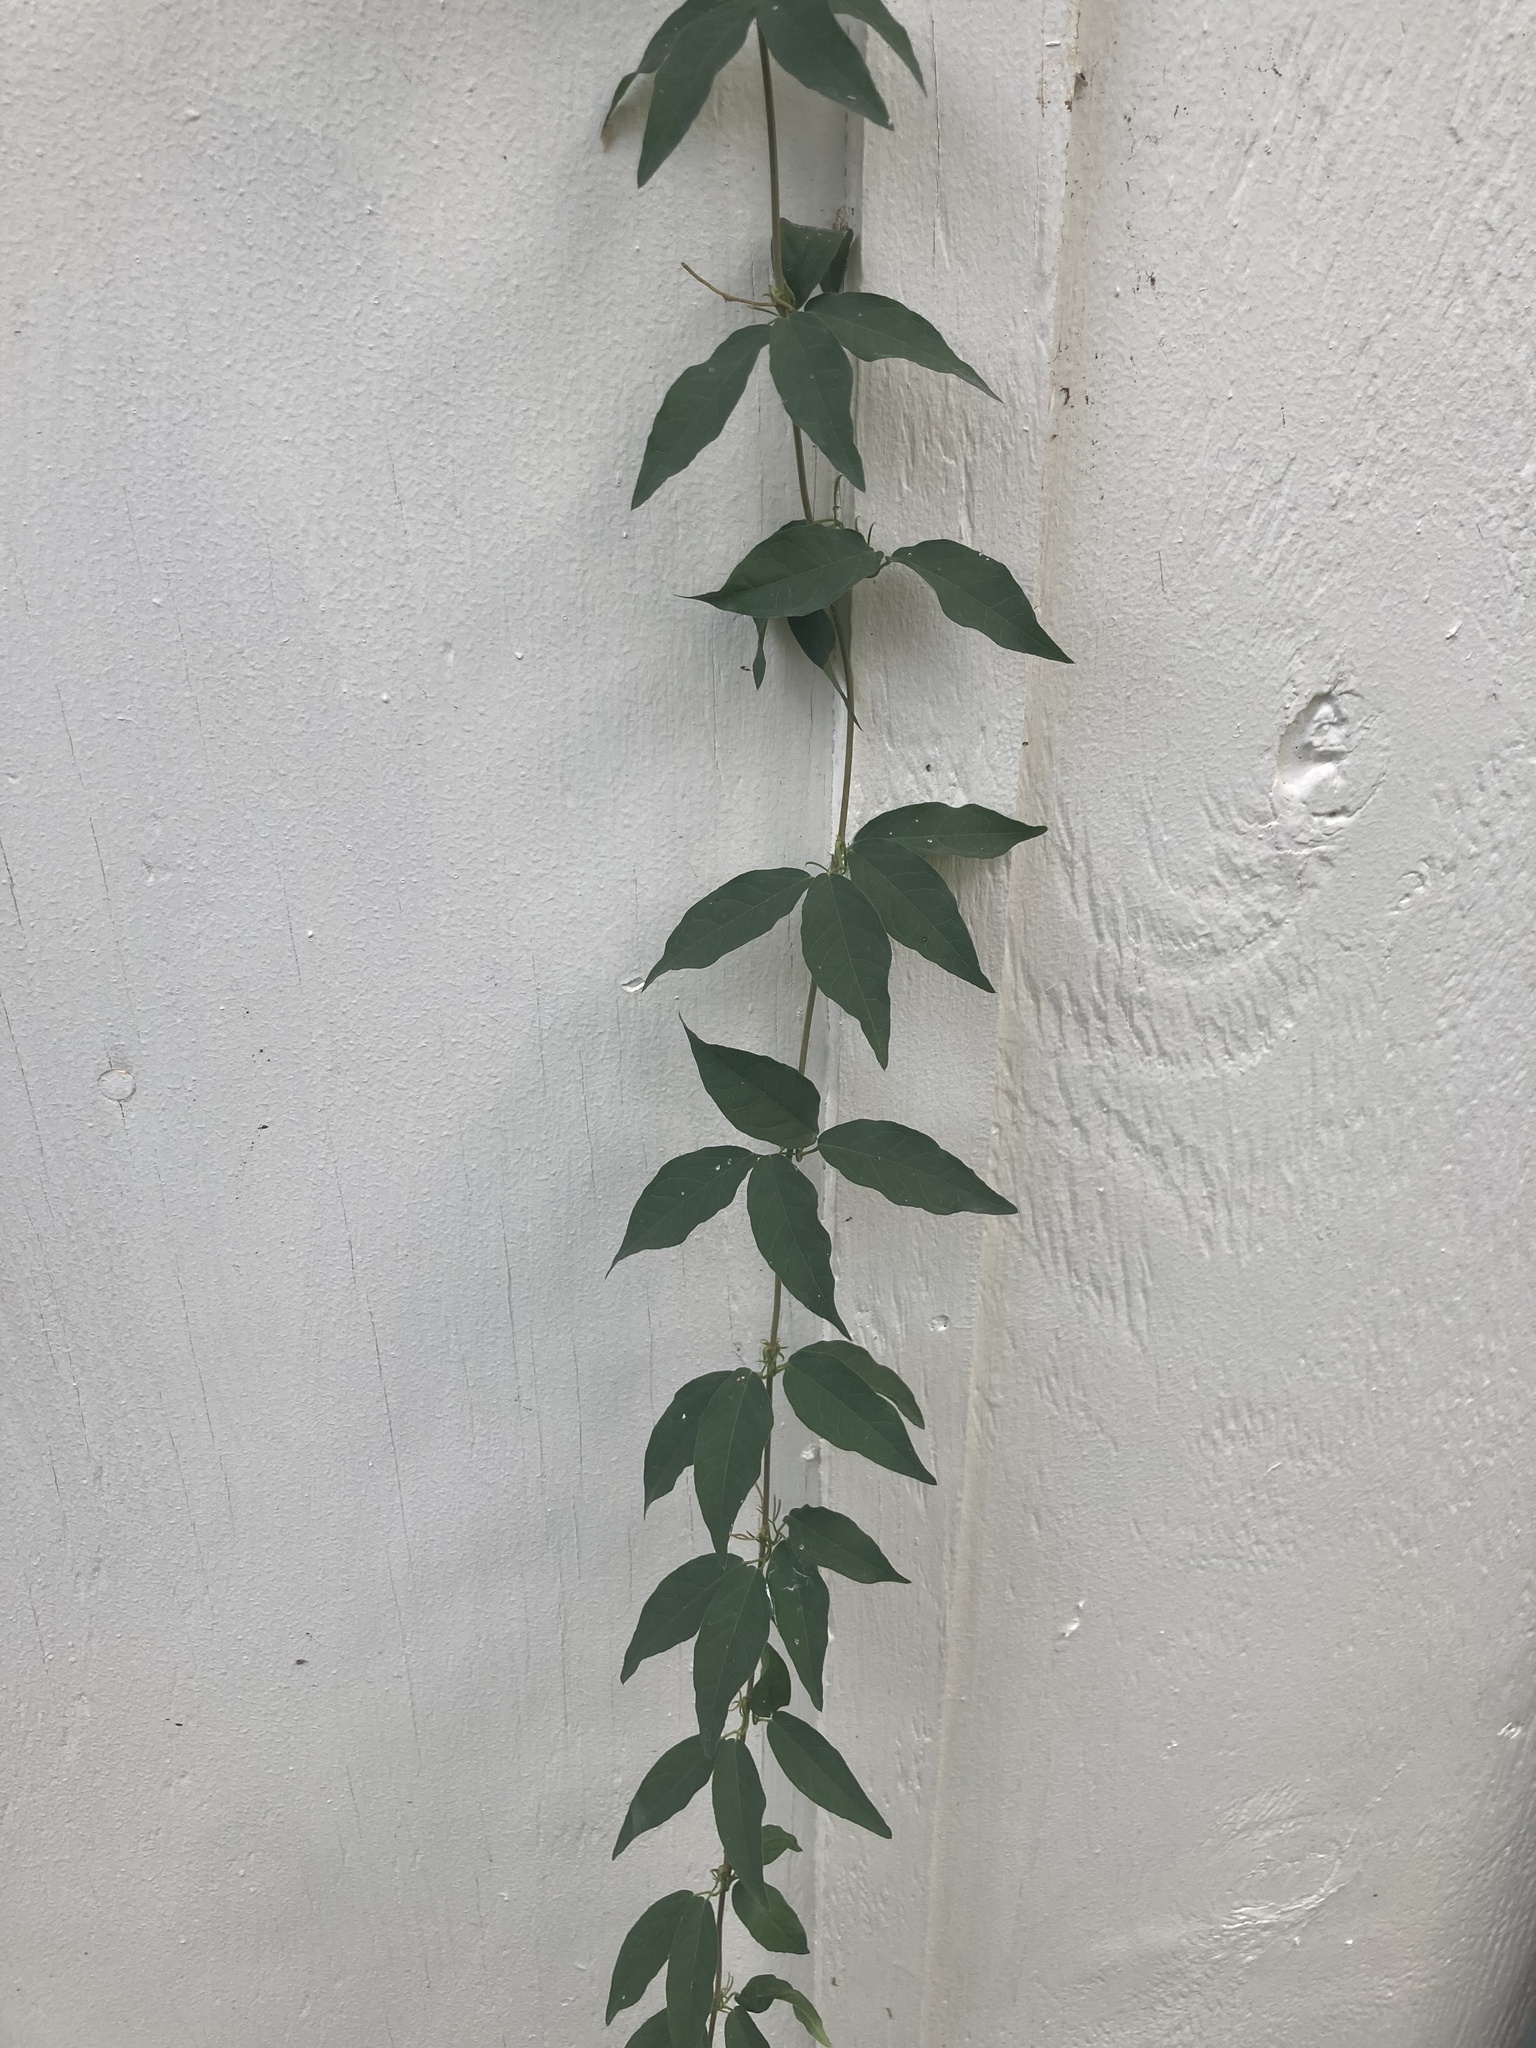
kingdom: Plantae
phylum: Tracheophyta
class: Magnoliopsida
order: Lamiales
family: Bignoniaceae
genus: Dolichandra
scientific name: Dolichandra unguis-cati
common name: Catclaw vine
